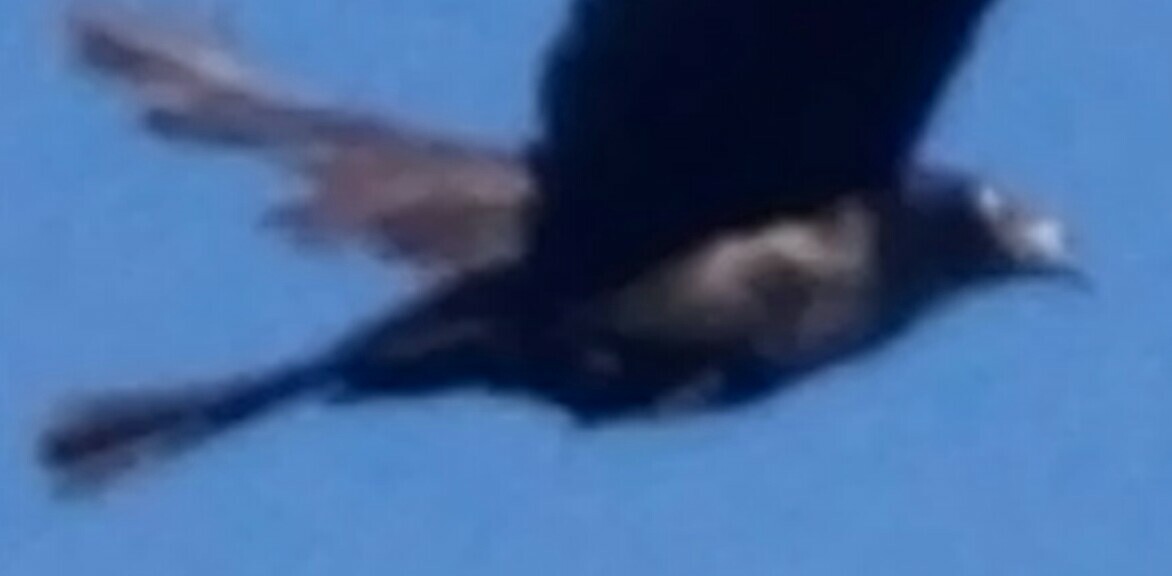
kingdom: Animalia
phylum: Chordata
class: Aves
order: Passeriformes
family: Icteridae
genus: Quiscalus
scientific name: Quiscalus quiscula
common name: Common grackle
